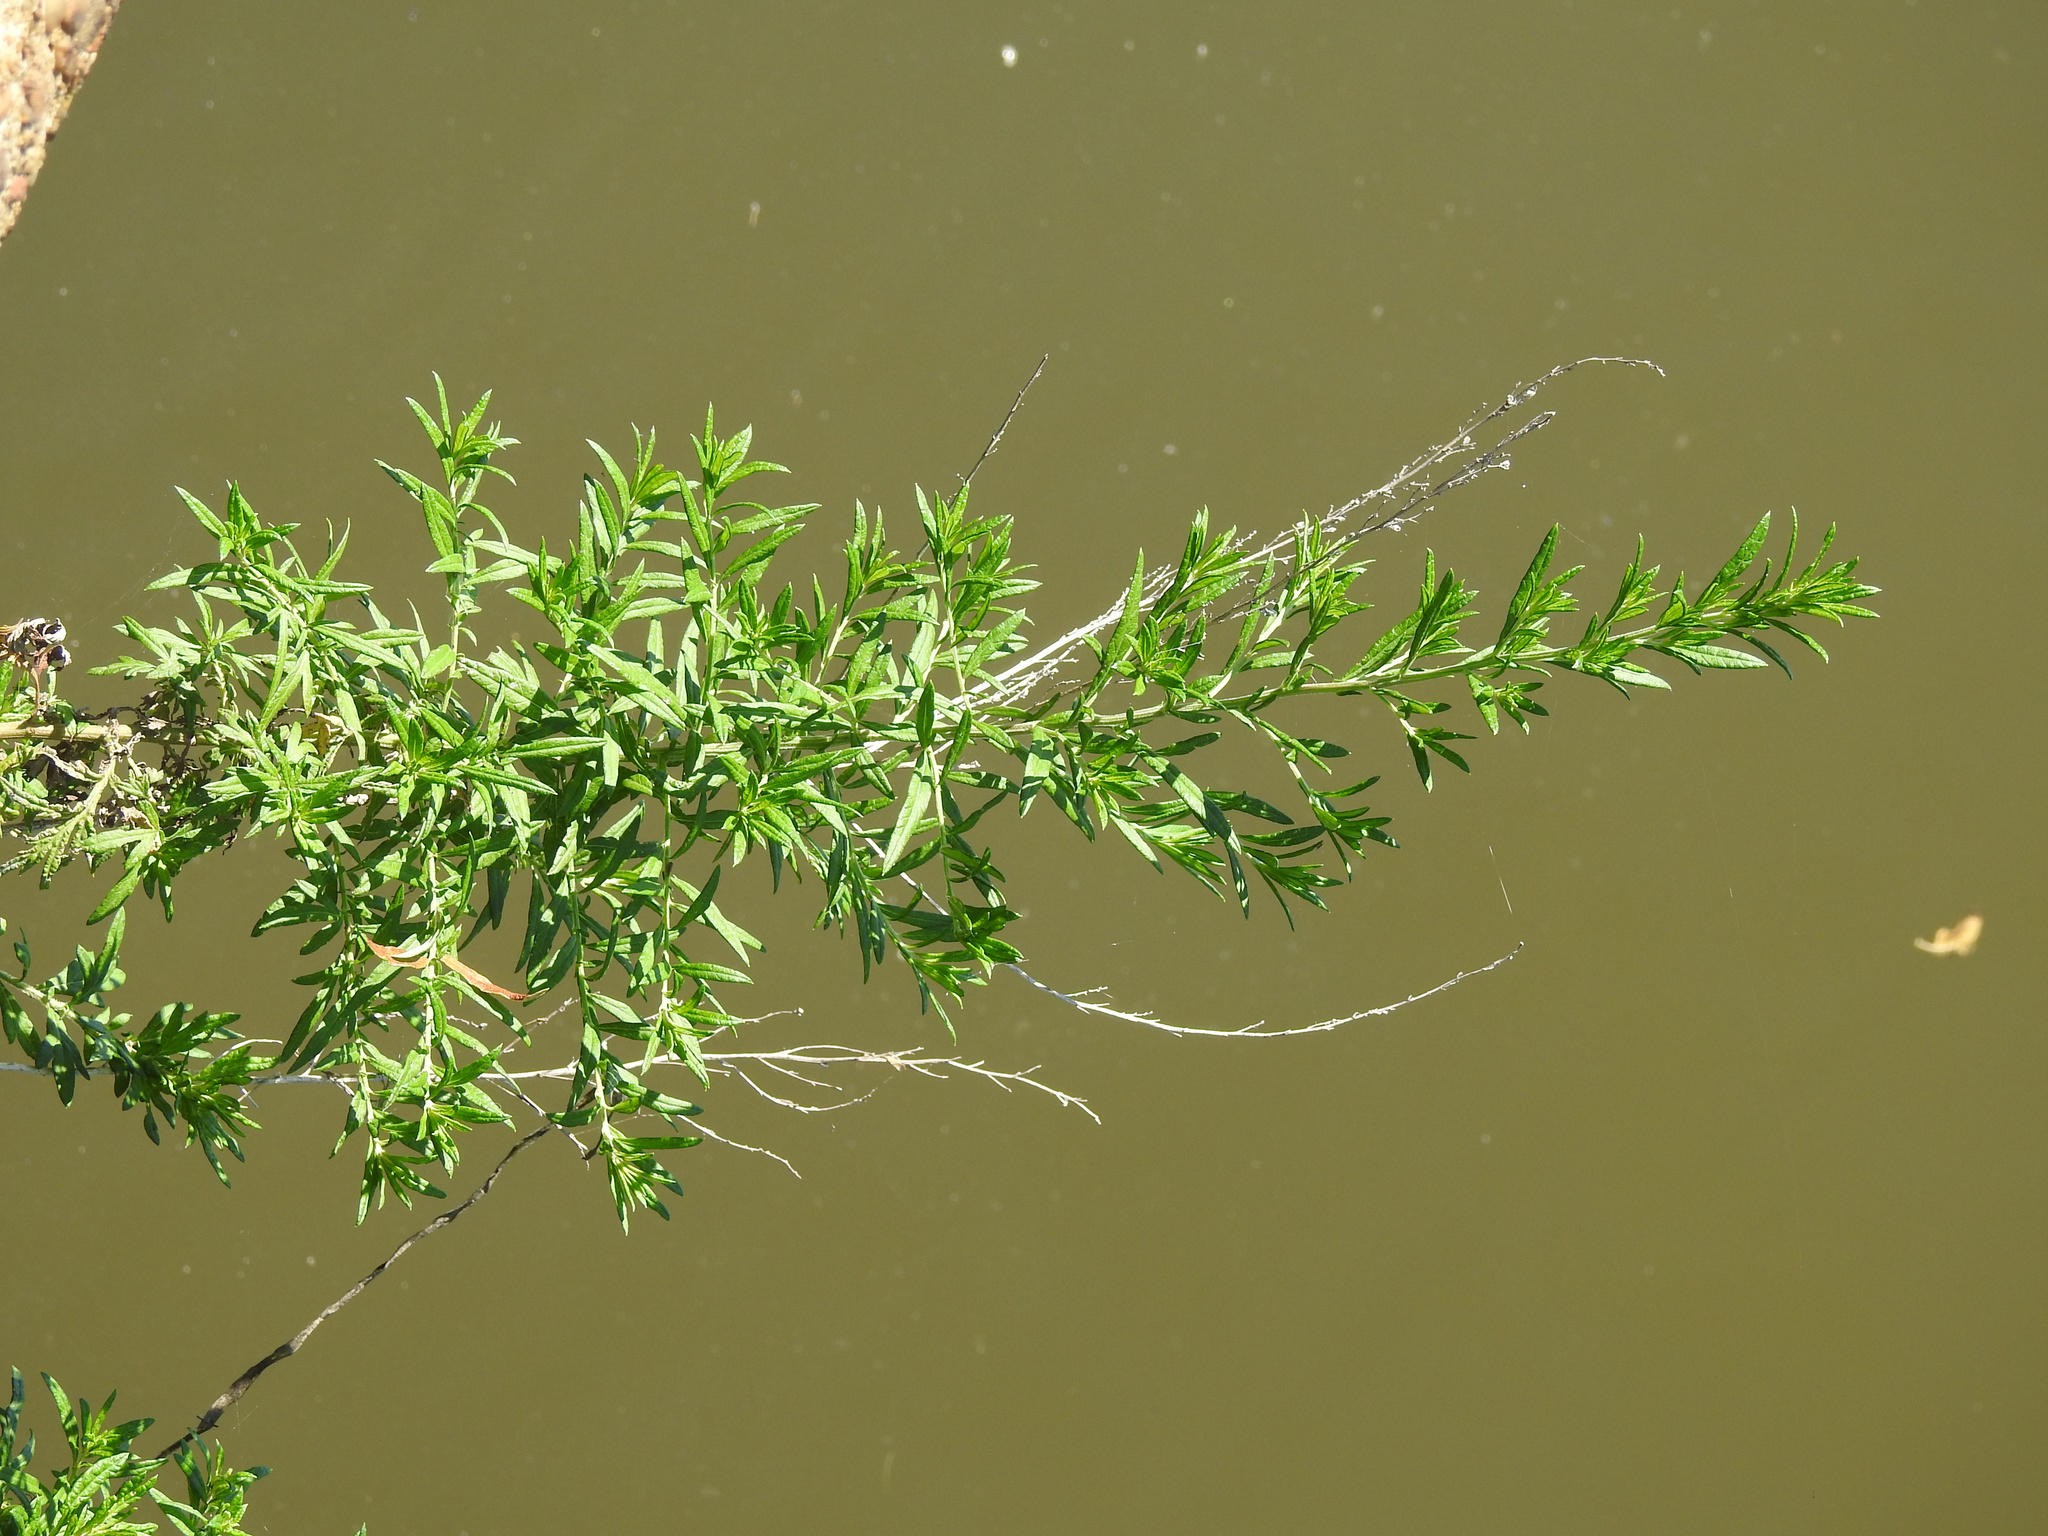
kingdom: Plantae
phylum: Tracheophyta
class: Magnoliopsida
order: Asterales
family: Asteraceae
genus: Artemisia
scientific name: Artemisia vulgaris
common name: Mugwort
